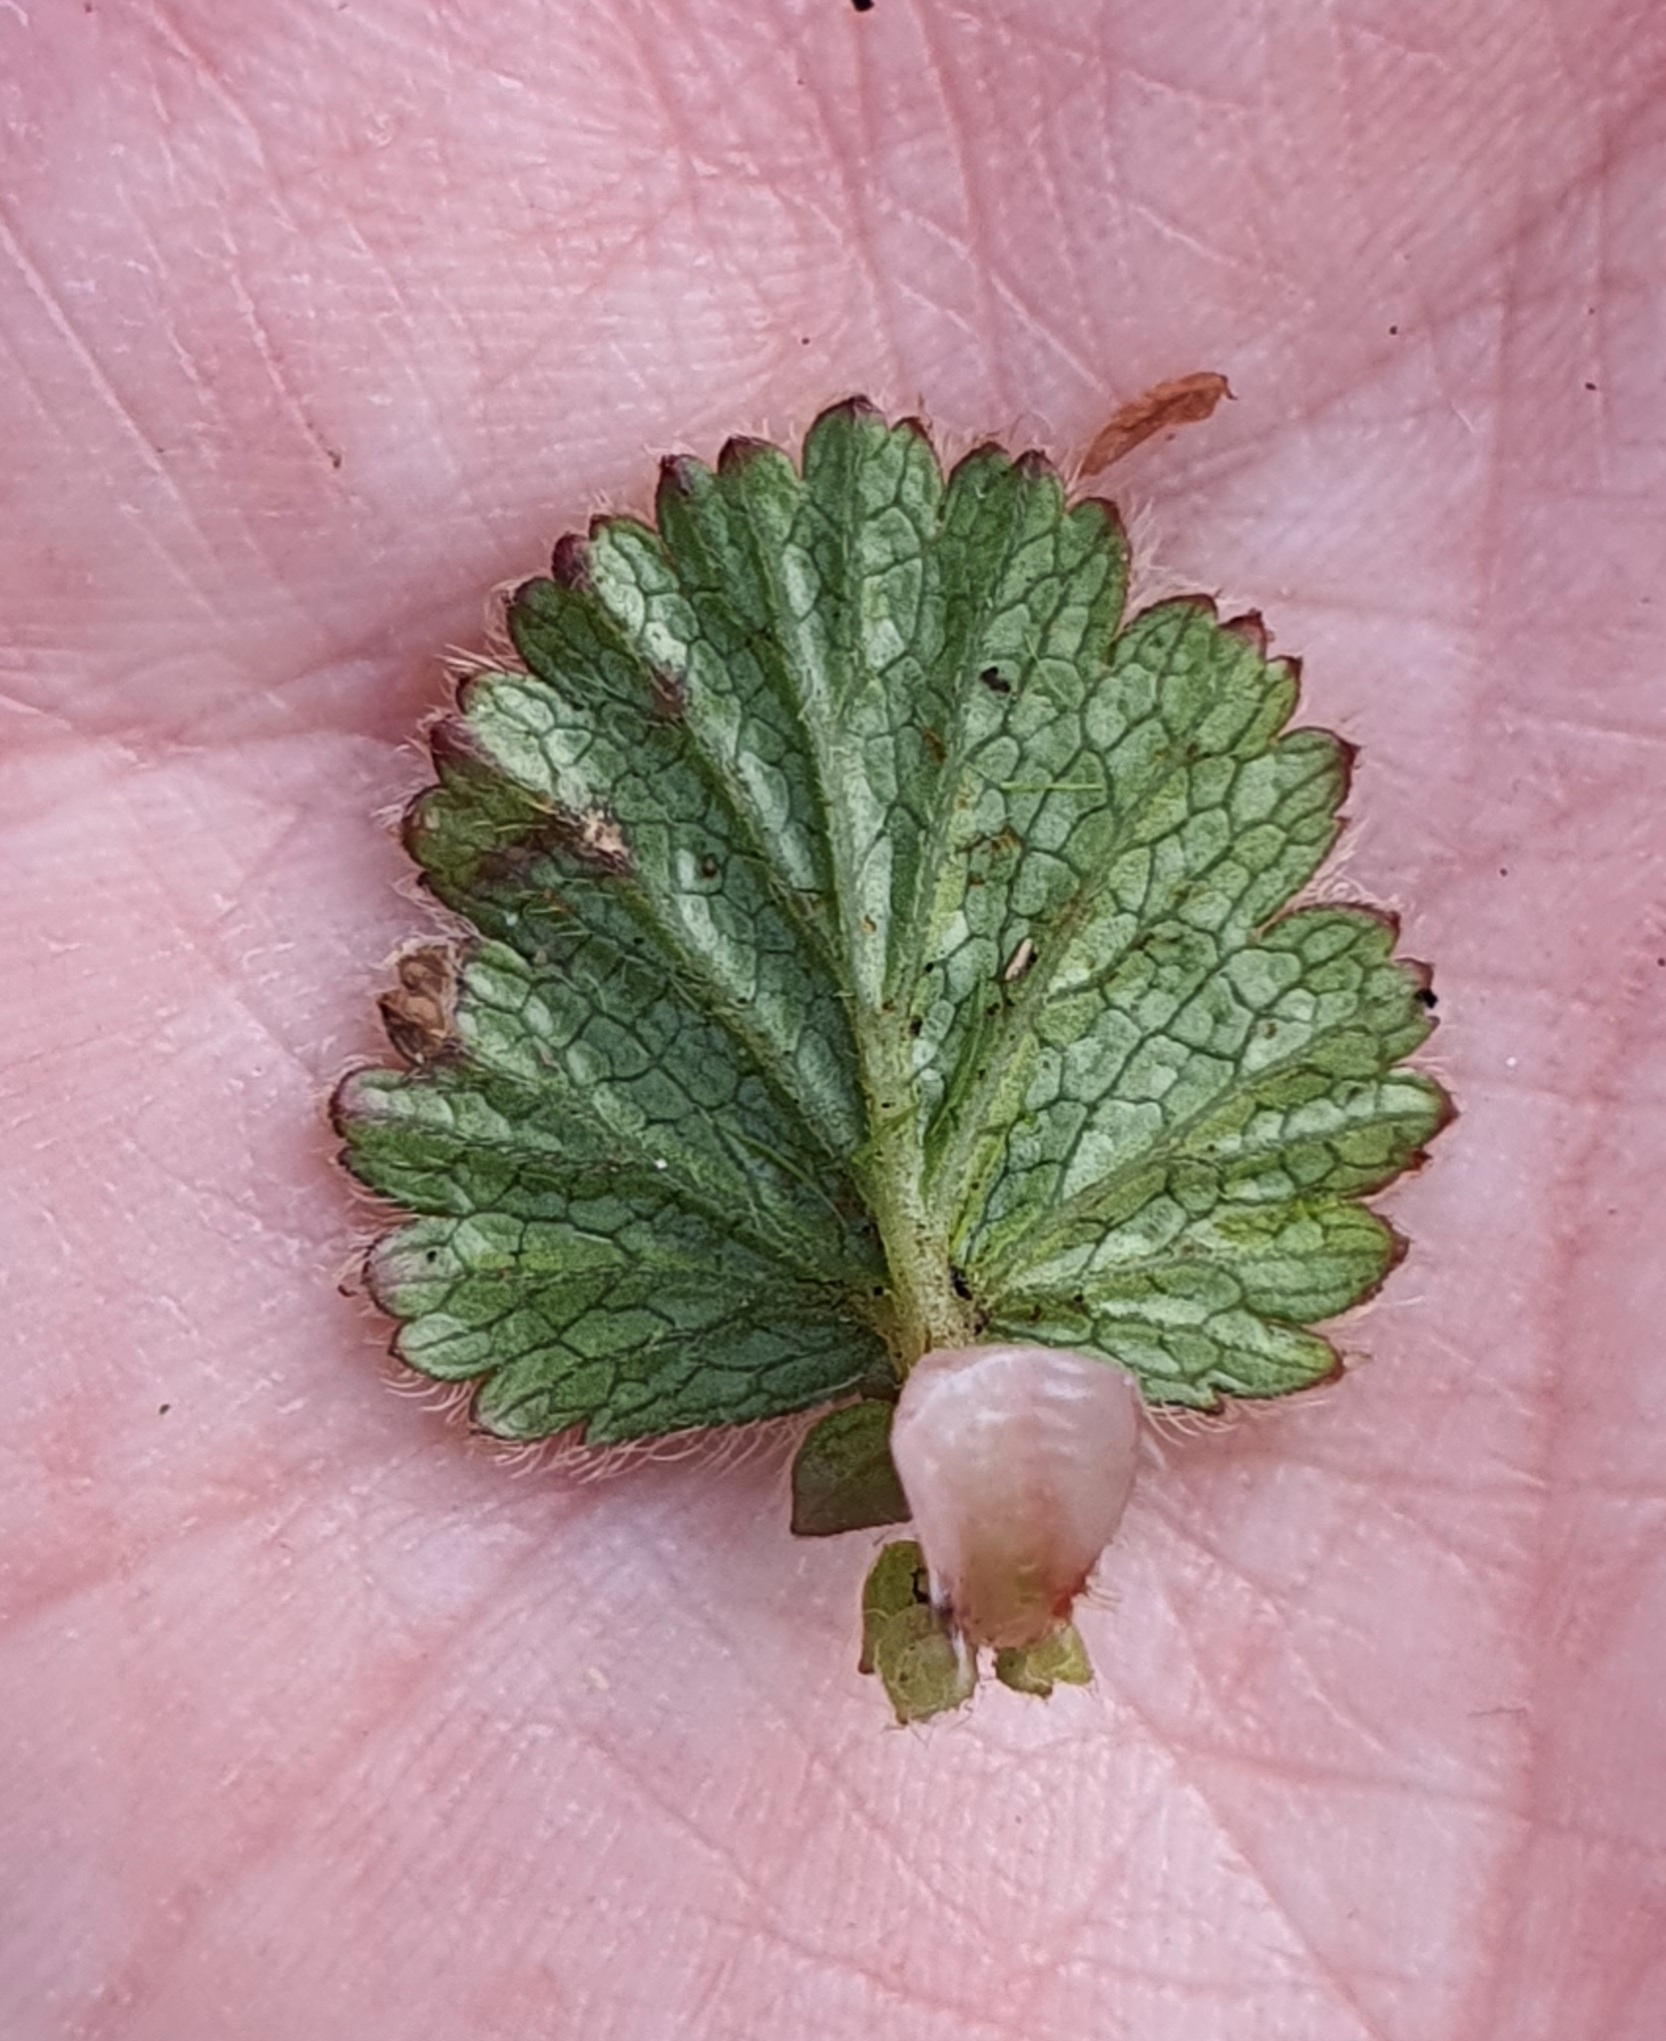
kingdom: Plantae
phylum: Tracheophyta
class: Magnoliopsida
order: Rosales
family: Rosaceae
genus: Geum
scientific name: Geum cockaynei
